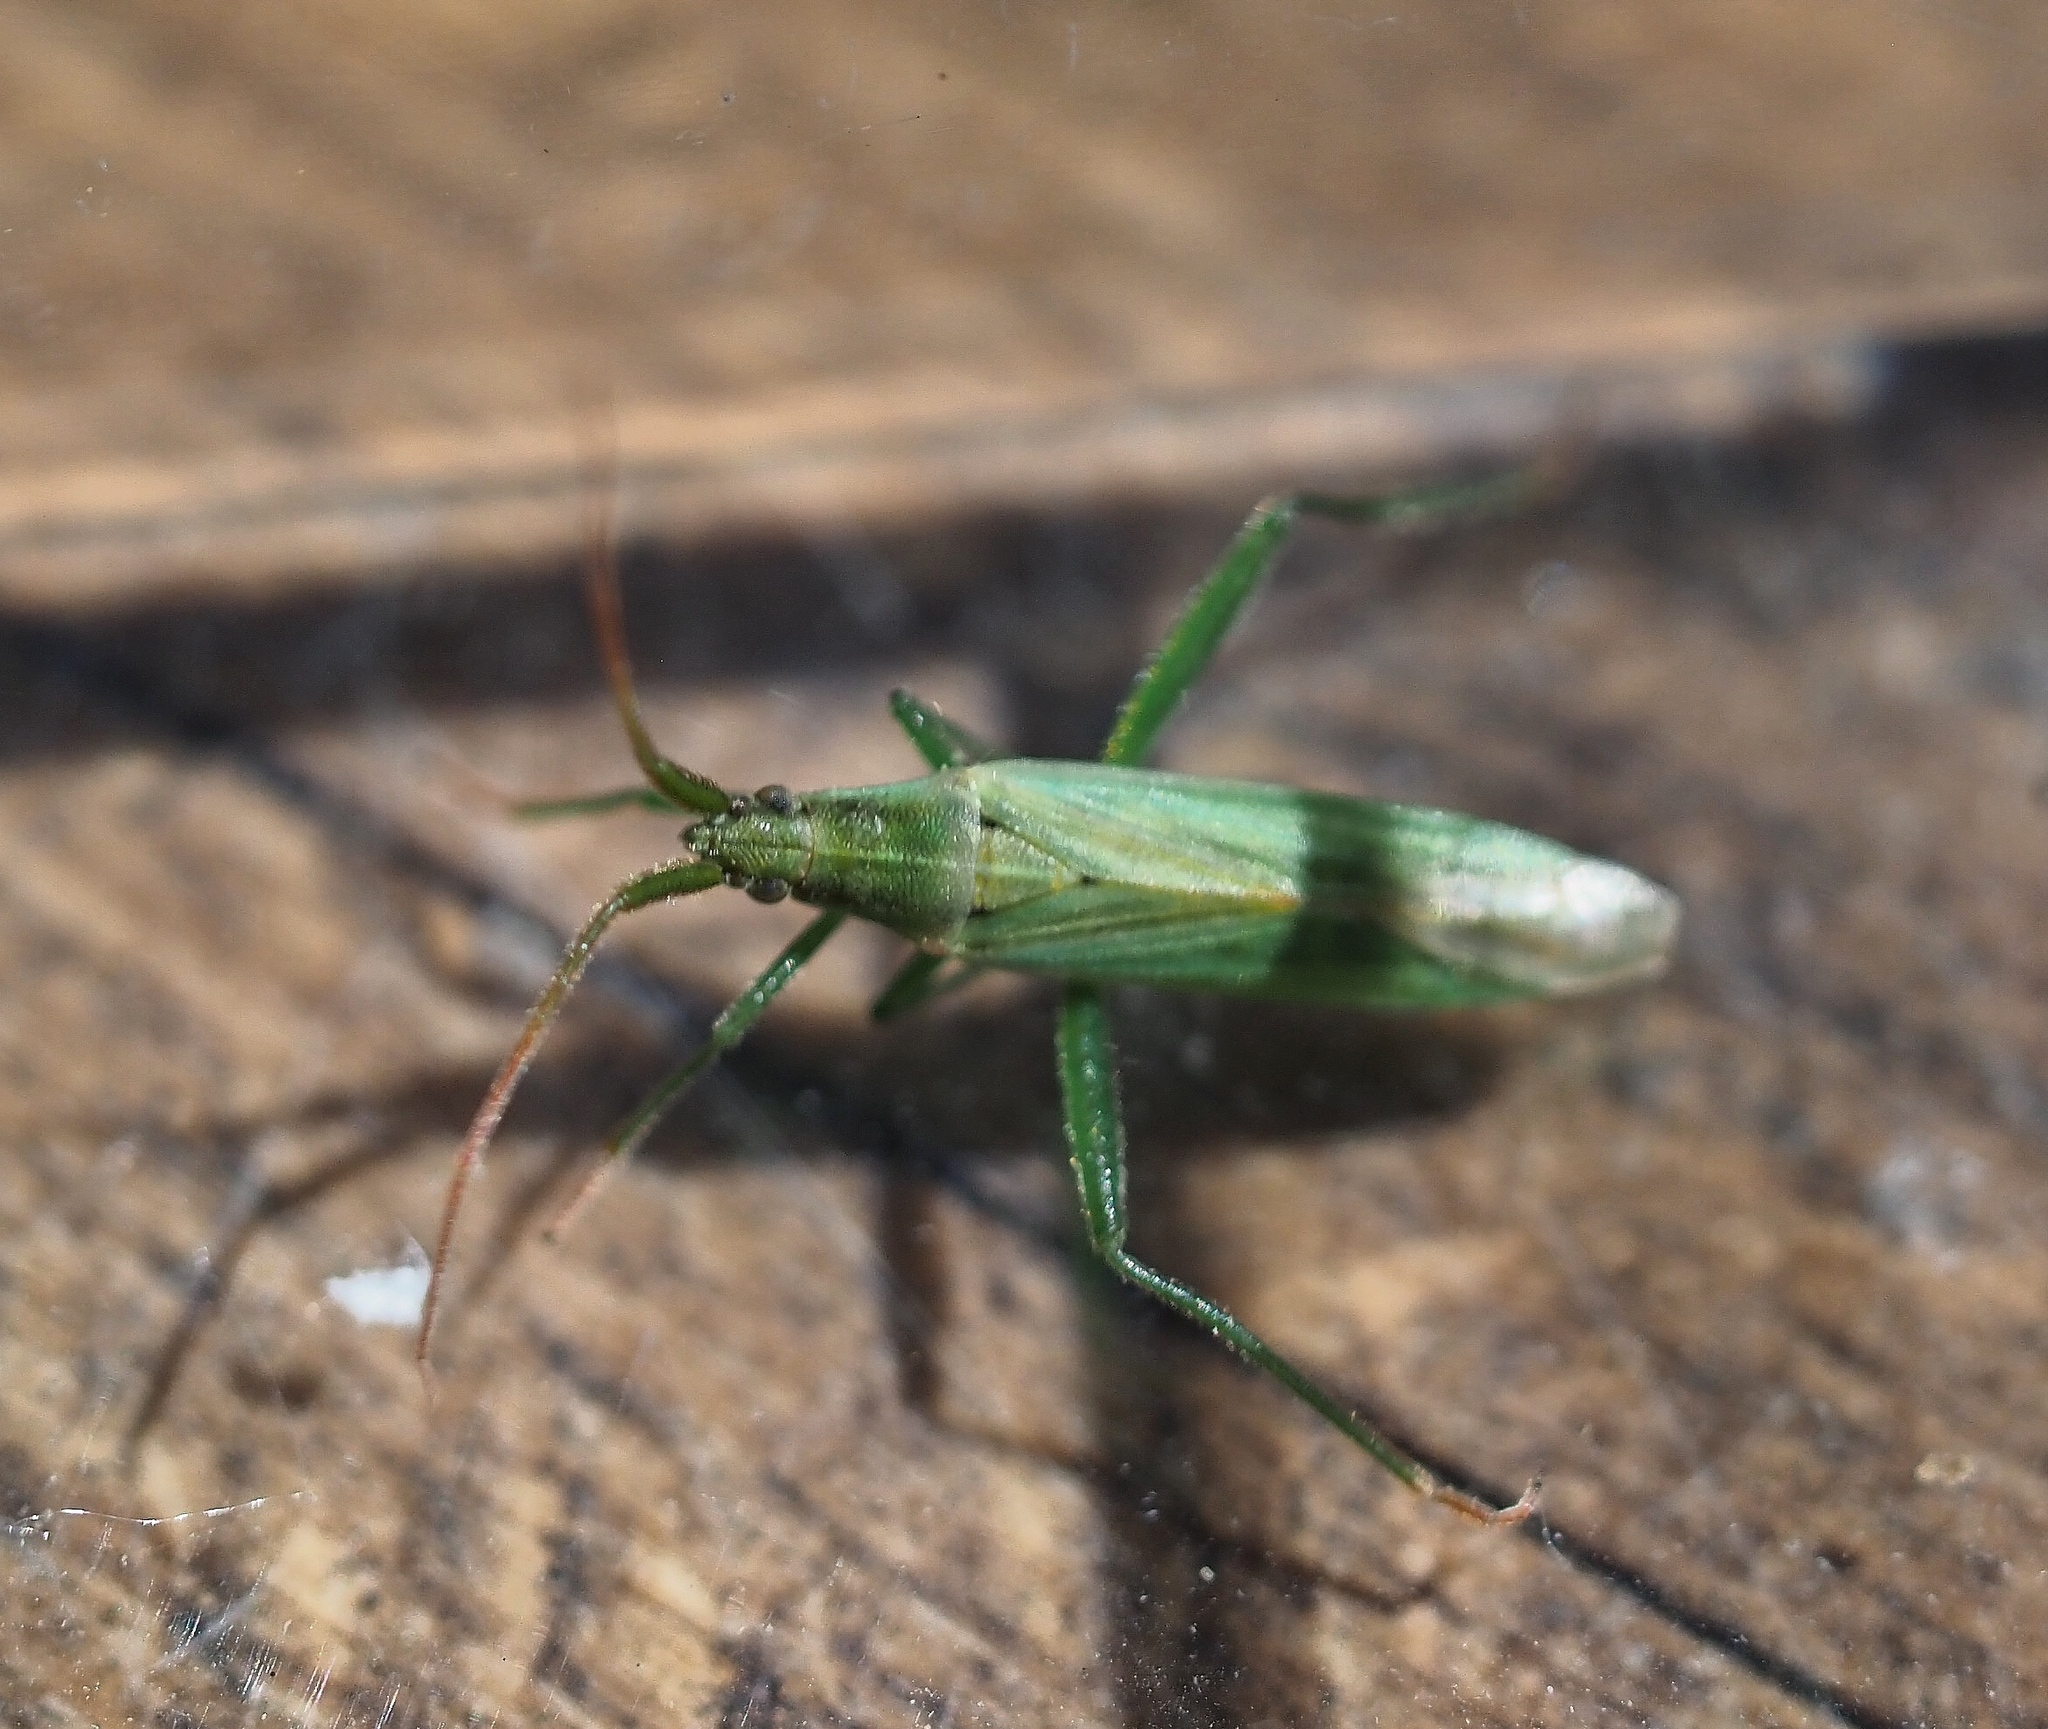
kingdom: Animalia
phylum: Arthropoda
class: Insecta
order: Hemiptera
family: Miridae
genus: Stenodema
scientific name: Stenodema laevigata
